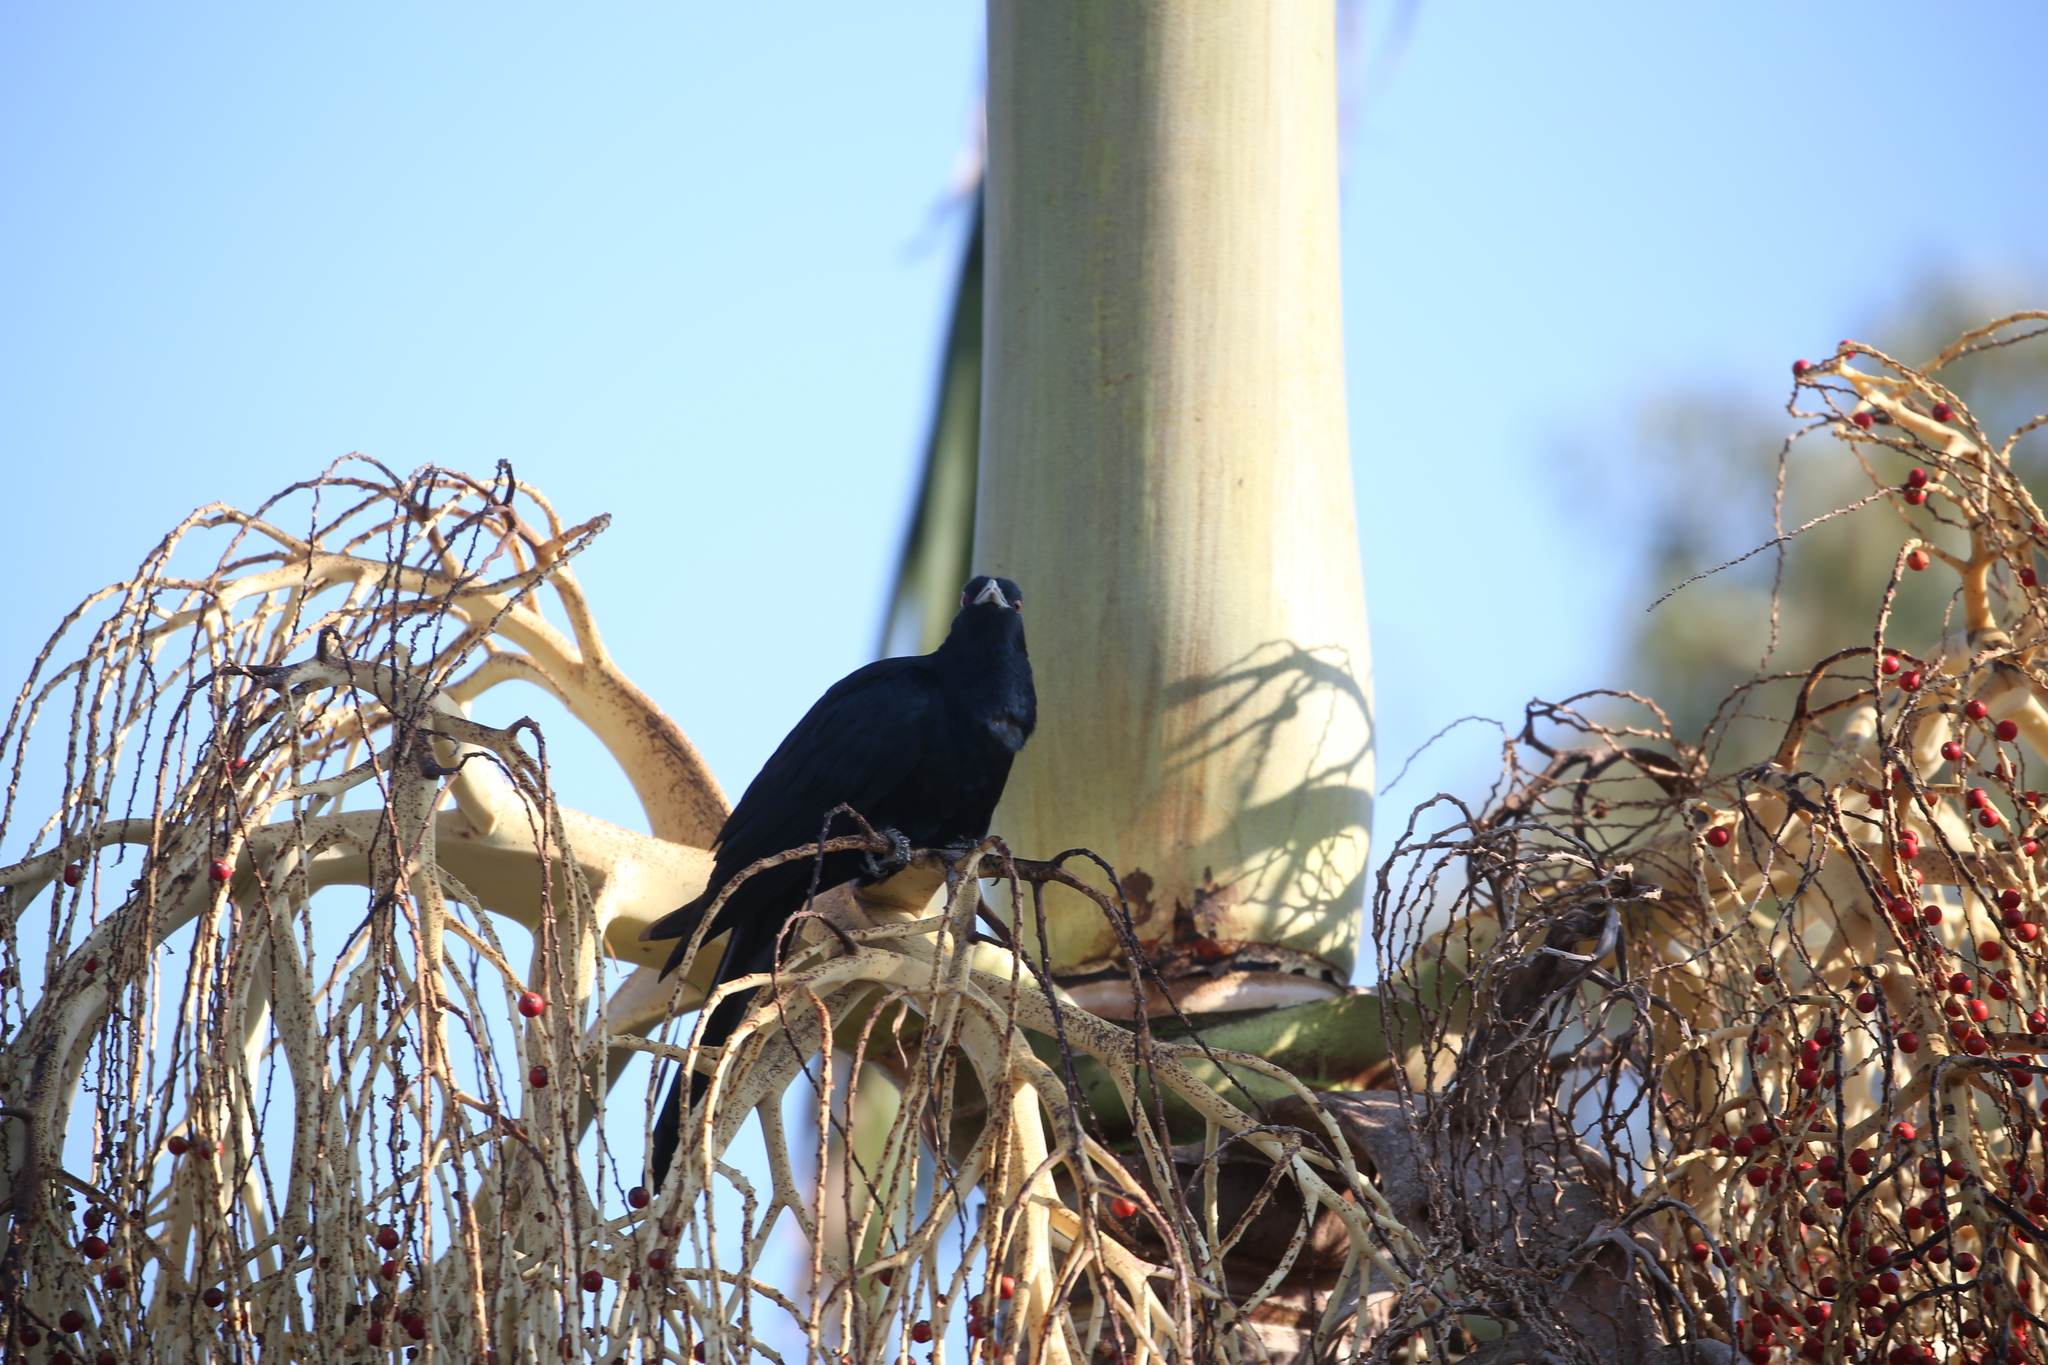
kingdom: Animalia
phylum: Chordata
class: Aves
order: Cuculiformes
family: Cuculidae
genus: Eudynamys
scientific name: Eudynamys orientalis
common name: Pacific koel
